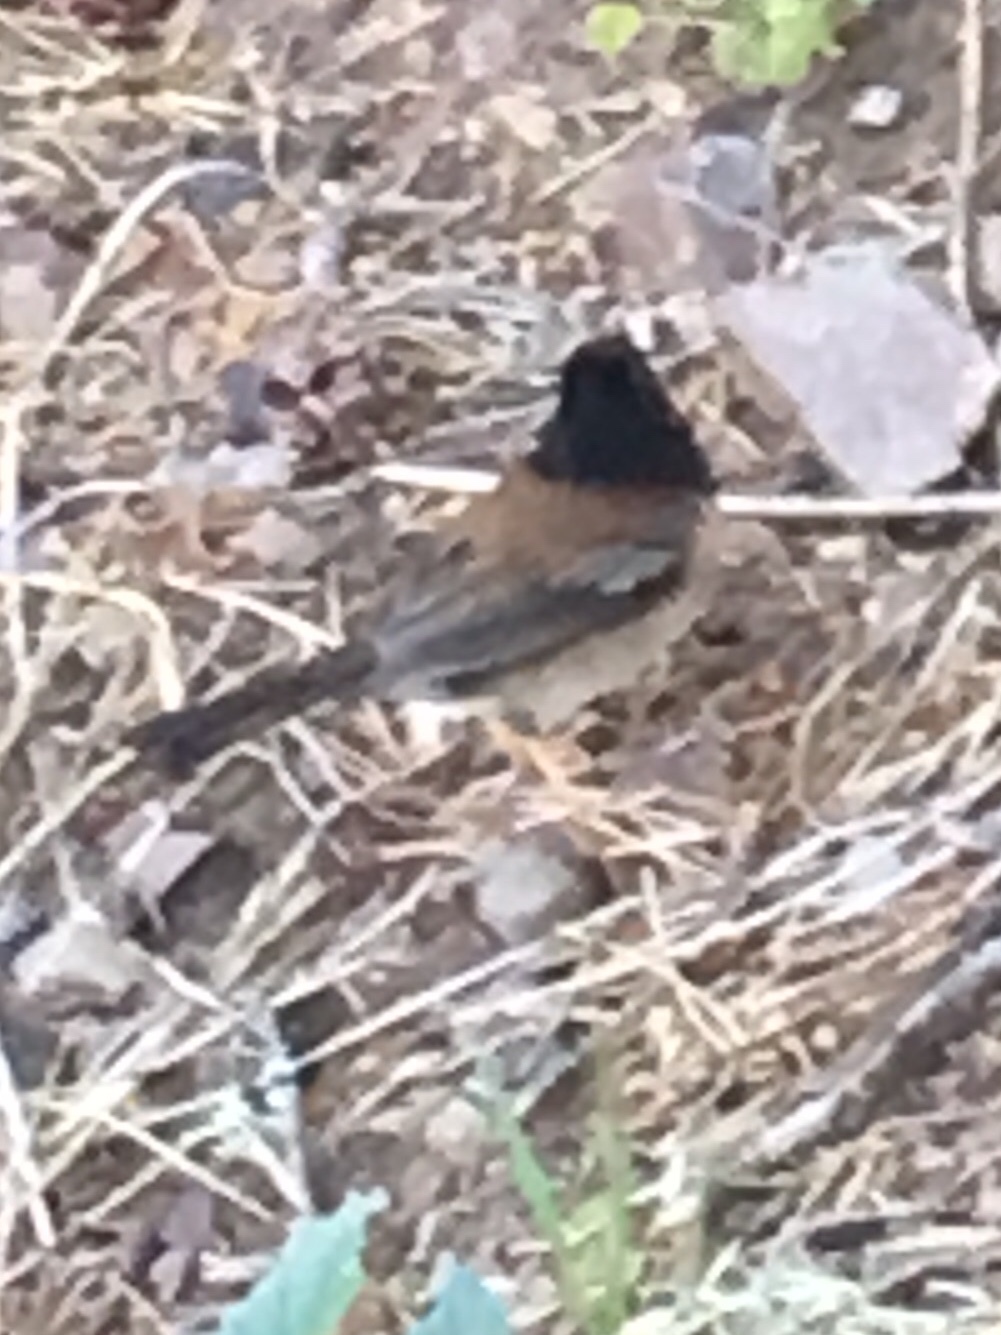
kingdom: Animalia
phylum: Chordata
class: Aves
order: Passeriformes
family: Passerellidae
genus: Junco
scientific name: Junco hyemalis
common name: Dark-eyed junco
